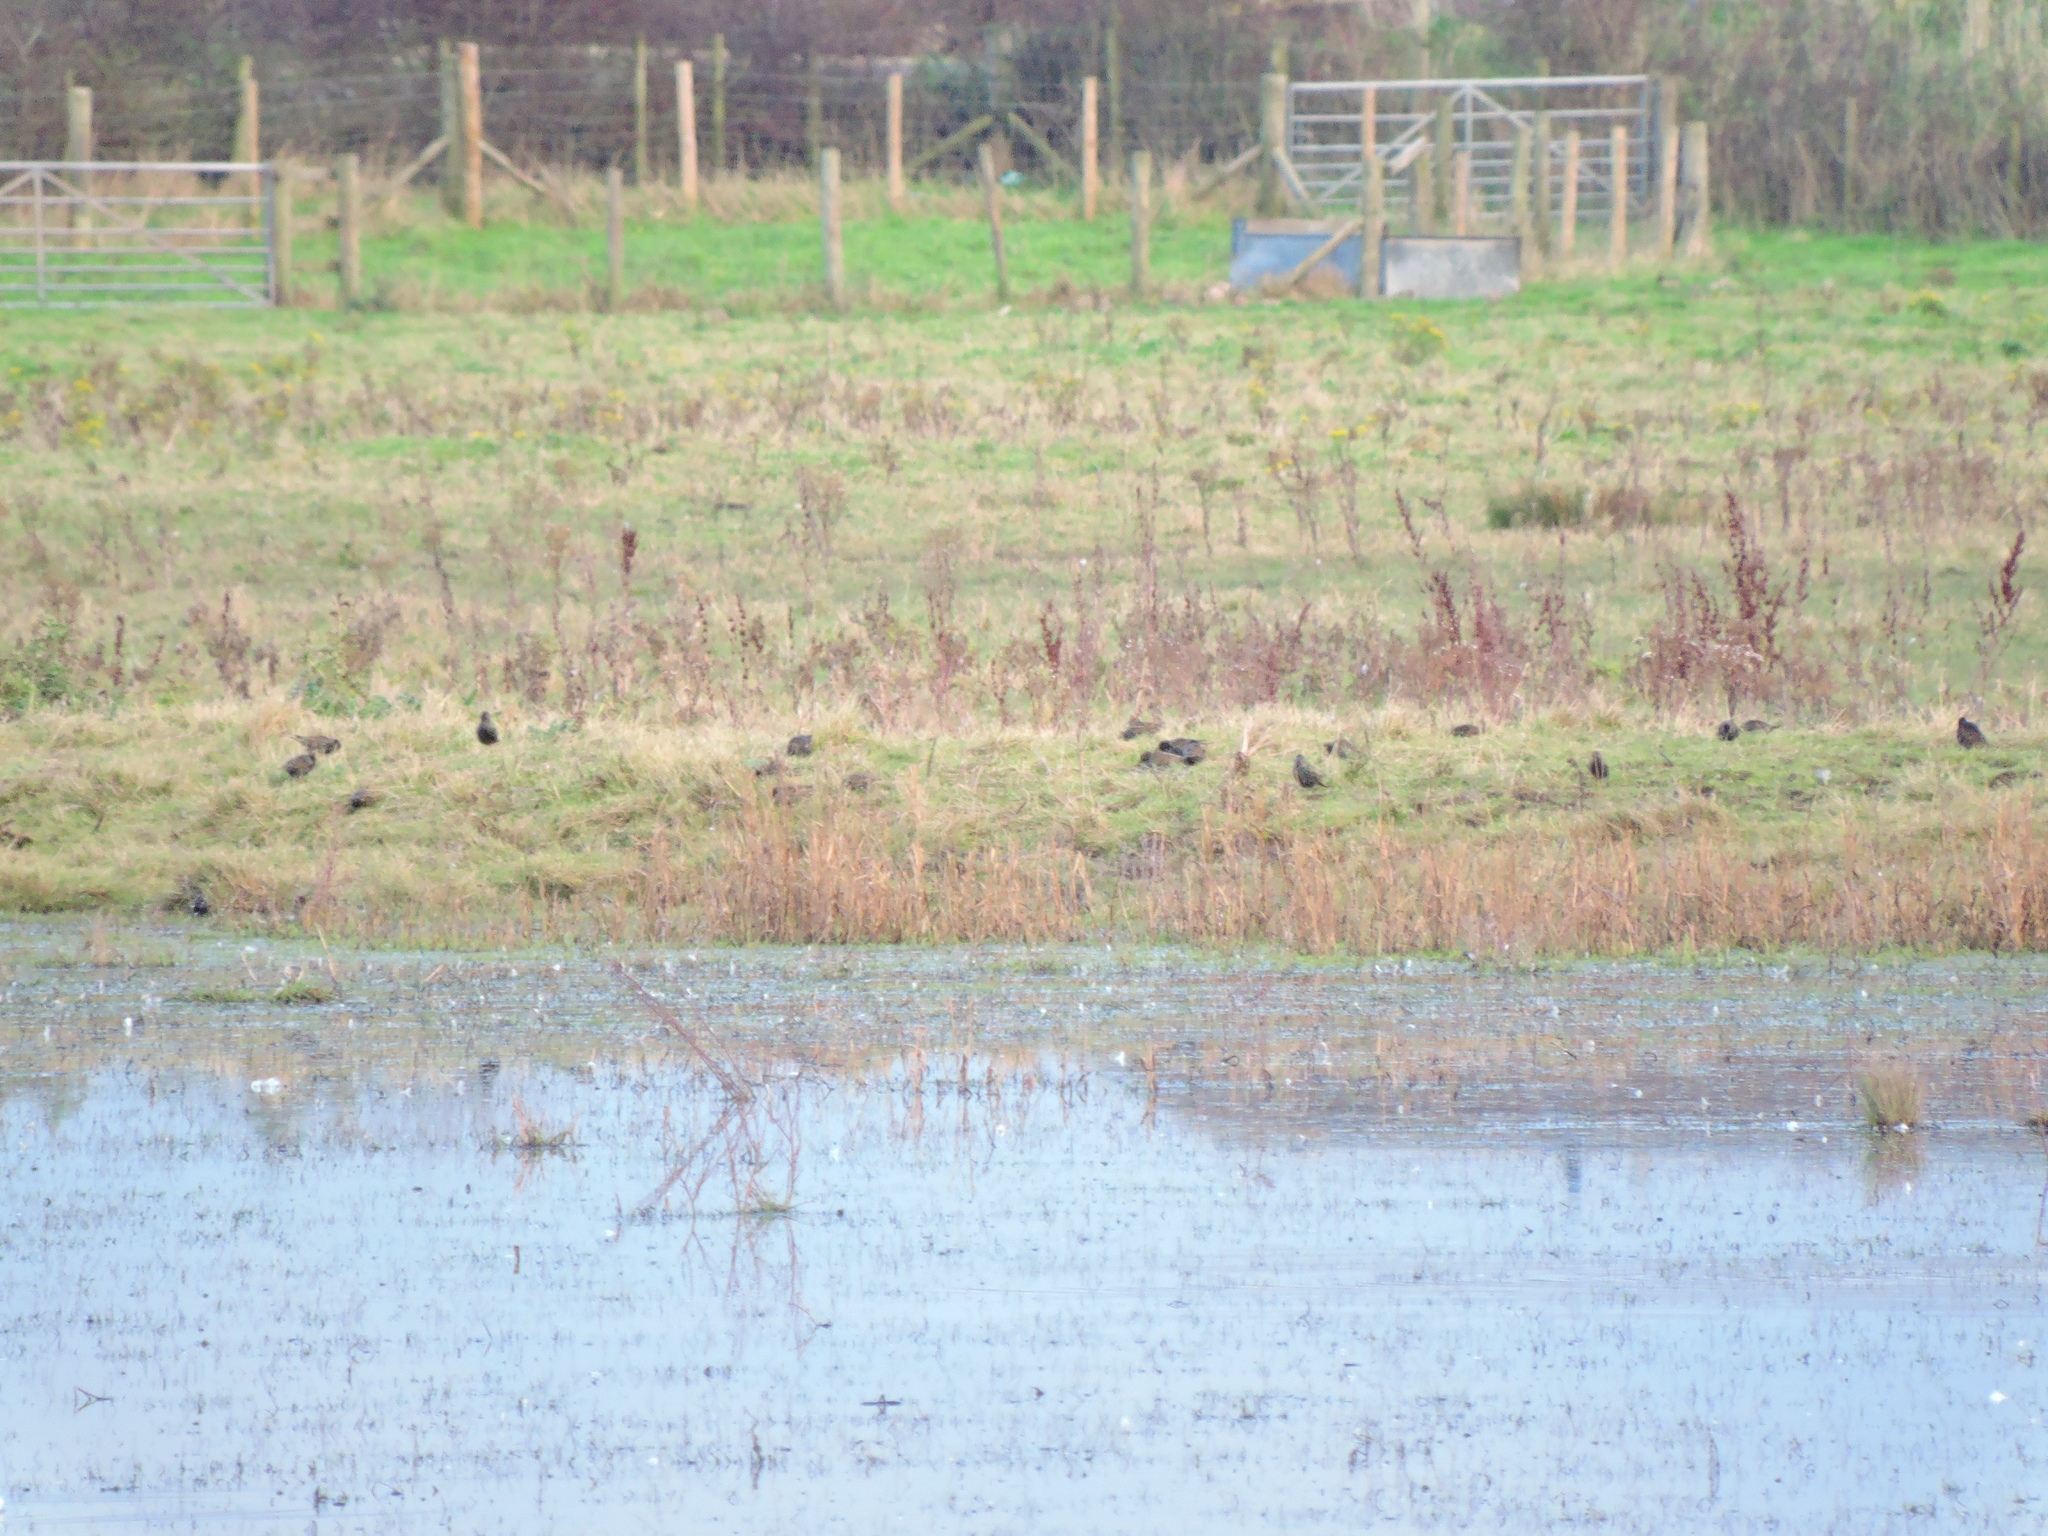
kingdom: Animalia
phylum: Chordata
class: Aves
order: Passeriformes
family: Sturnidae
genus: Sturnus
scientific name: Sturnus vulgaris
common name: Common starling
